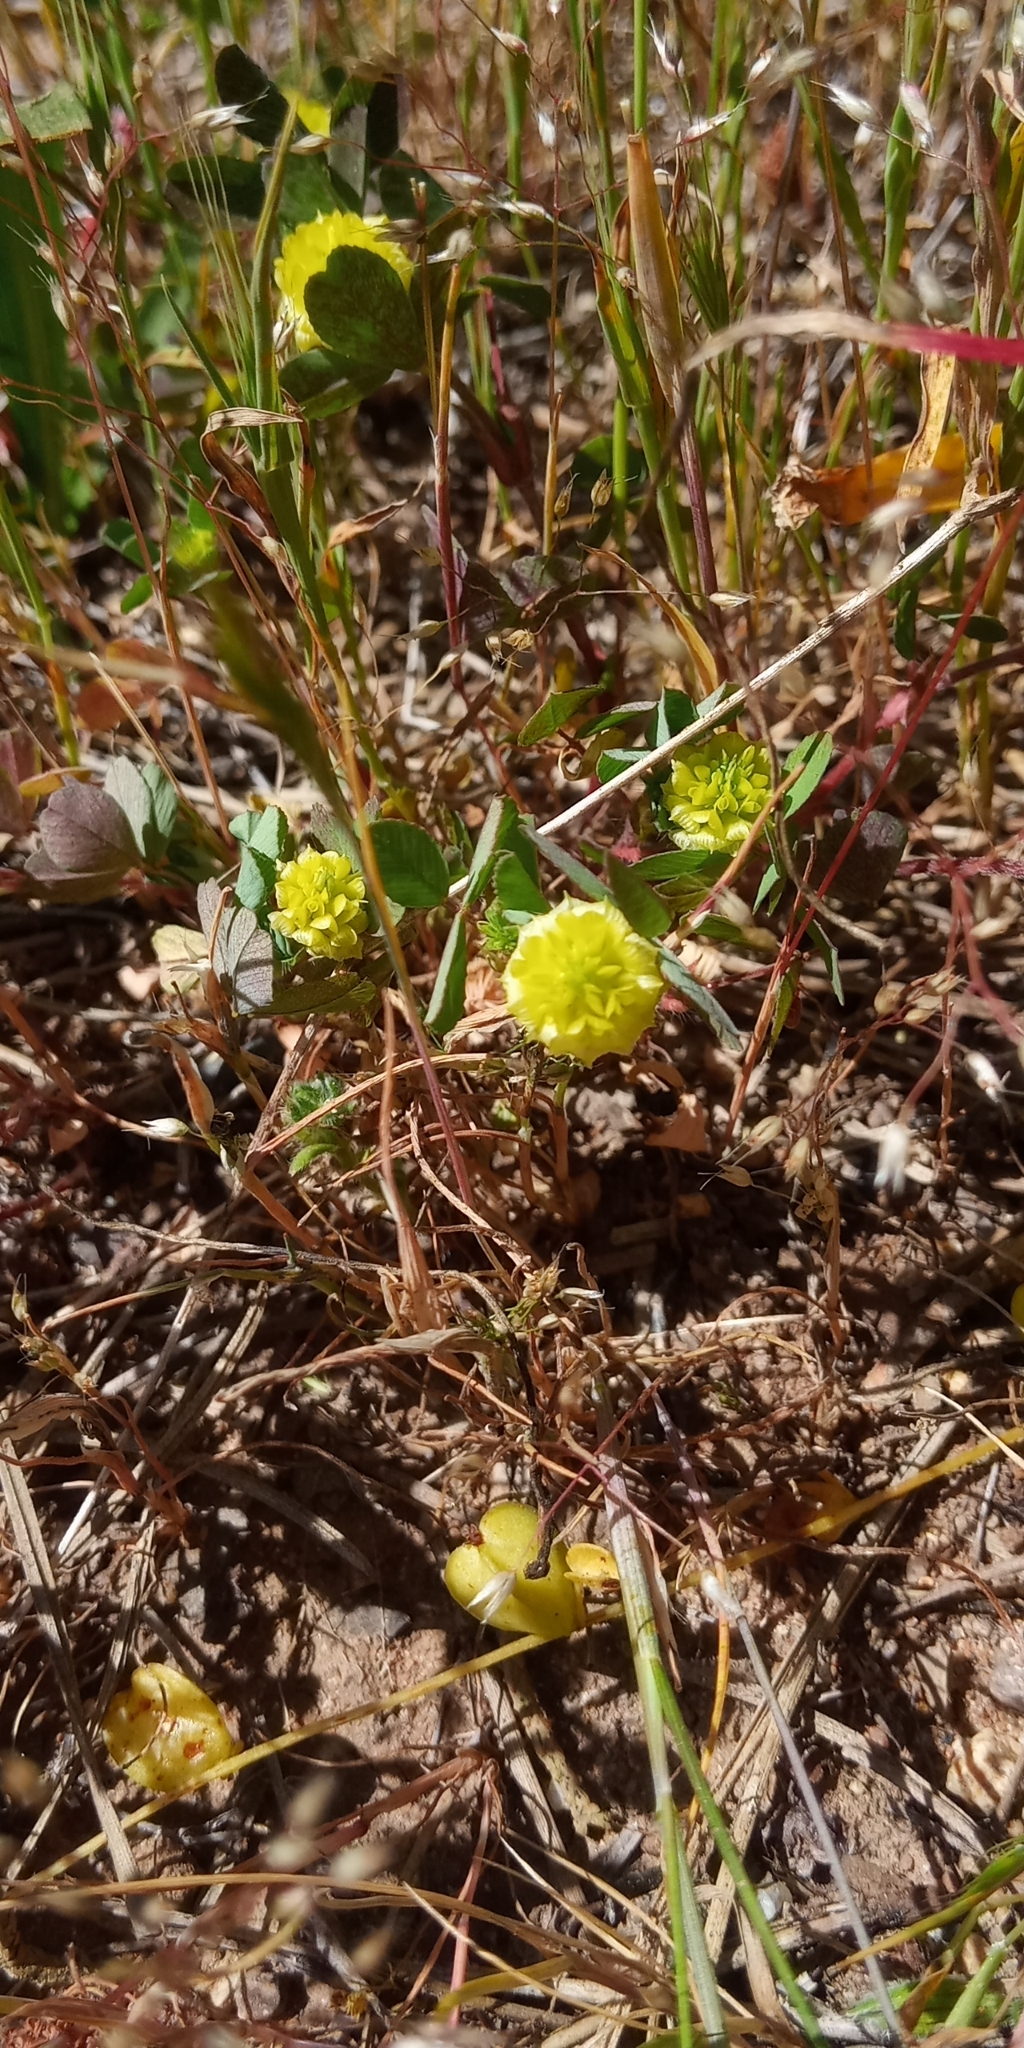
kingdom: Plantae
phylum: Tracheophyta
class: Magnoliopsida
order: Fabales
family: Fabaceae
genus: Trifolium
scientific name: Trifolium campestre
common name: Field clover
